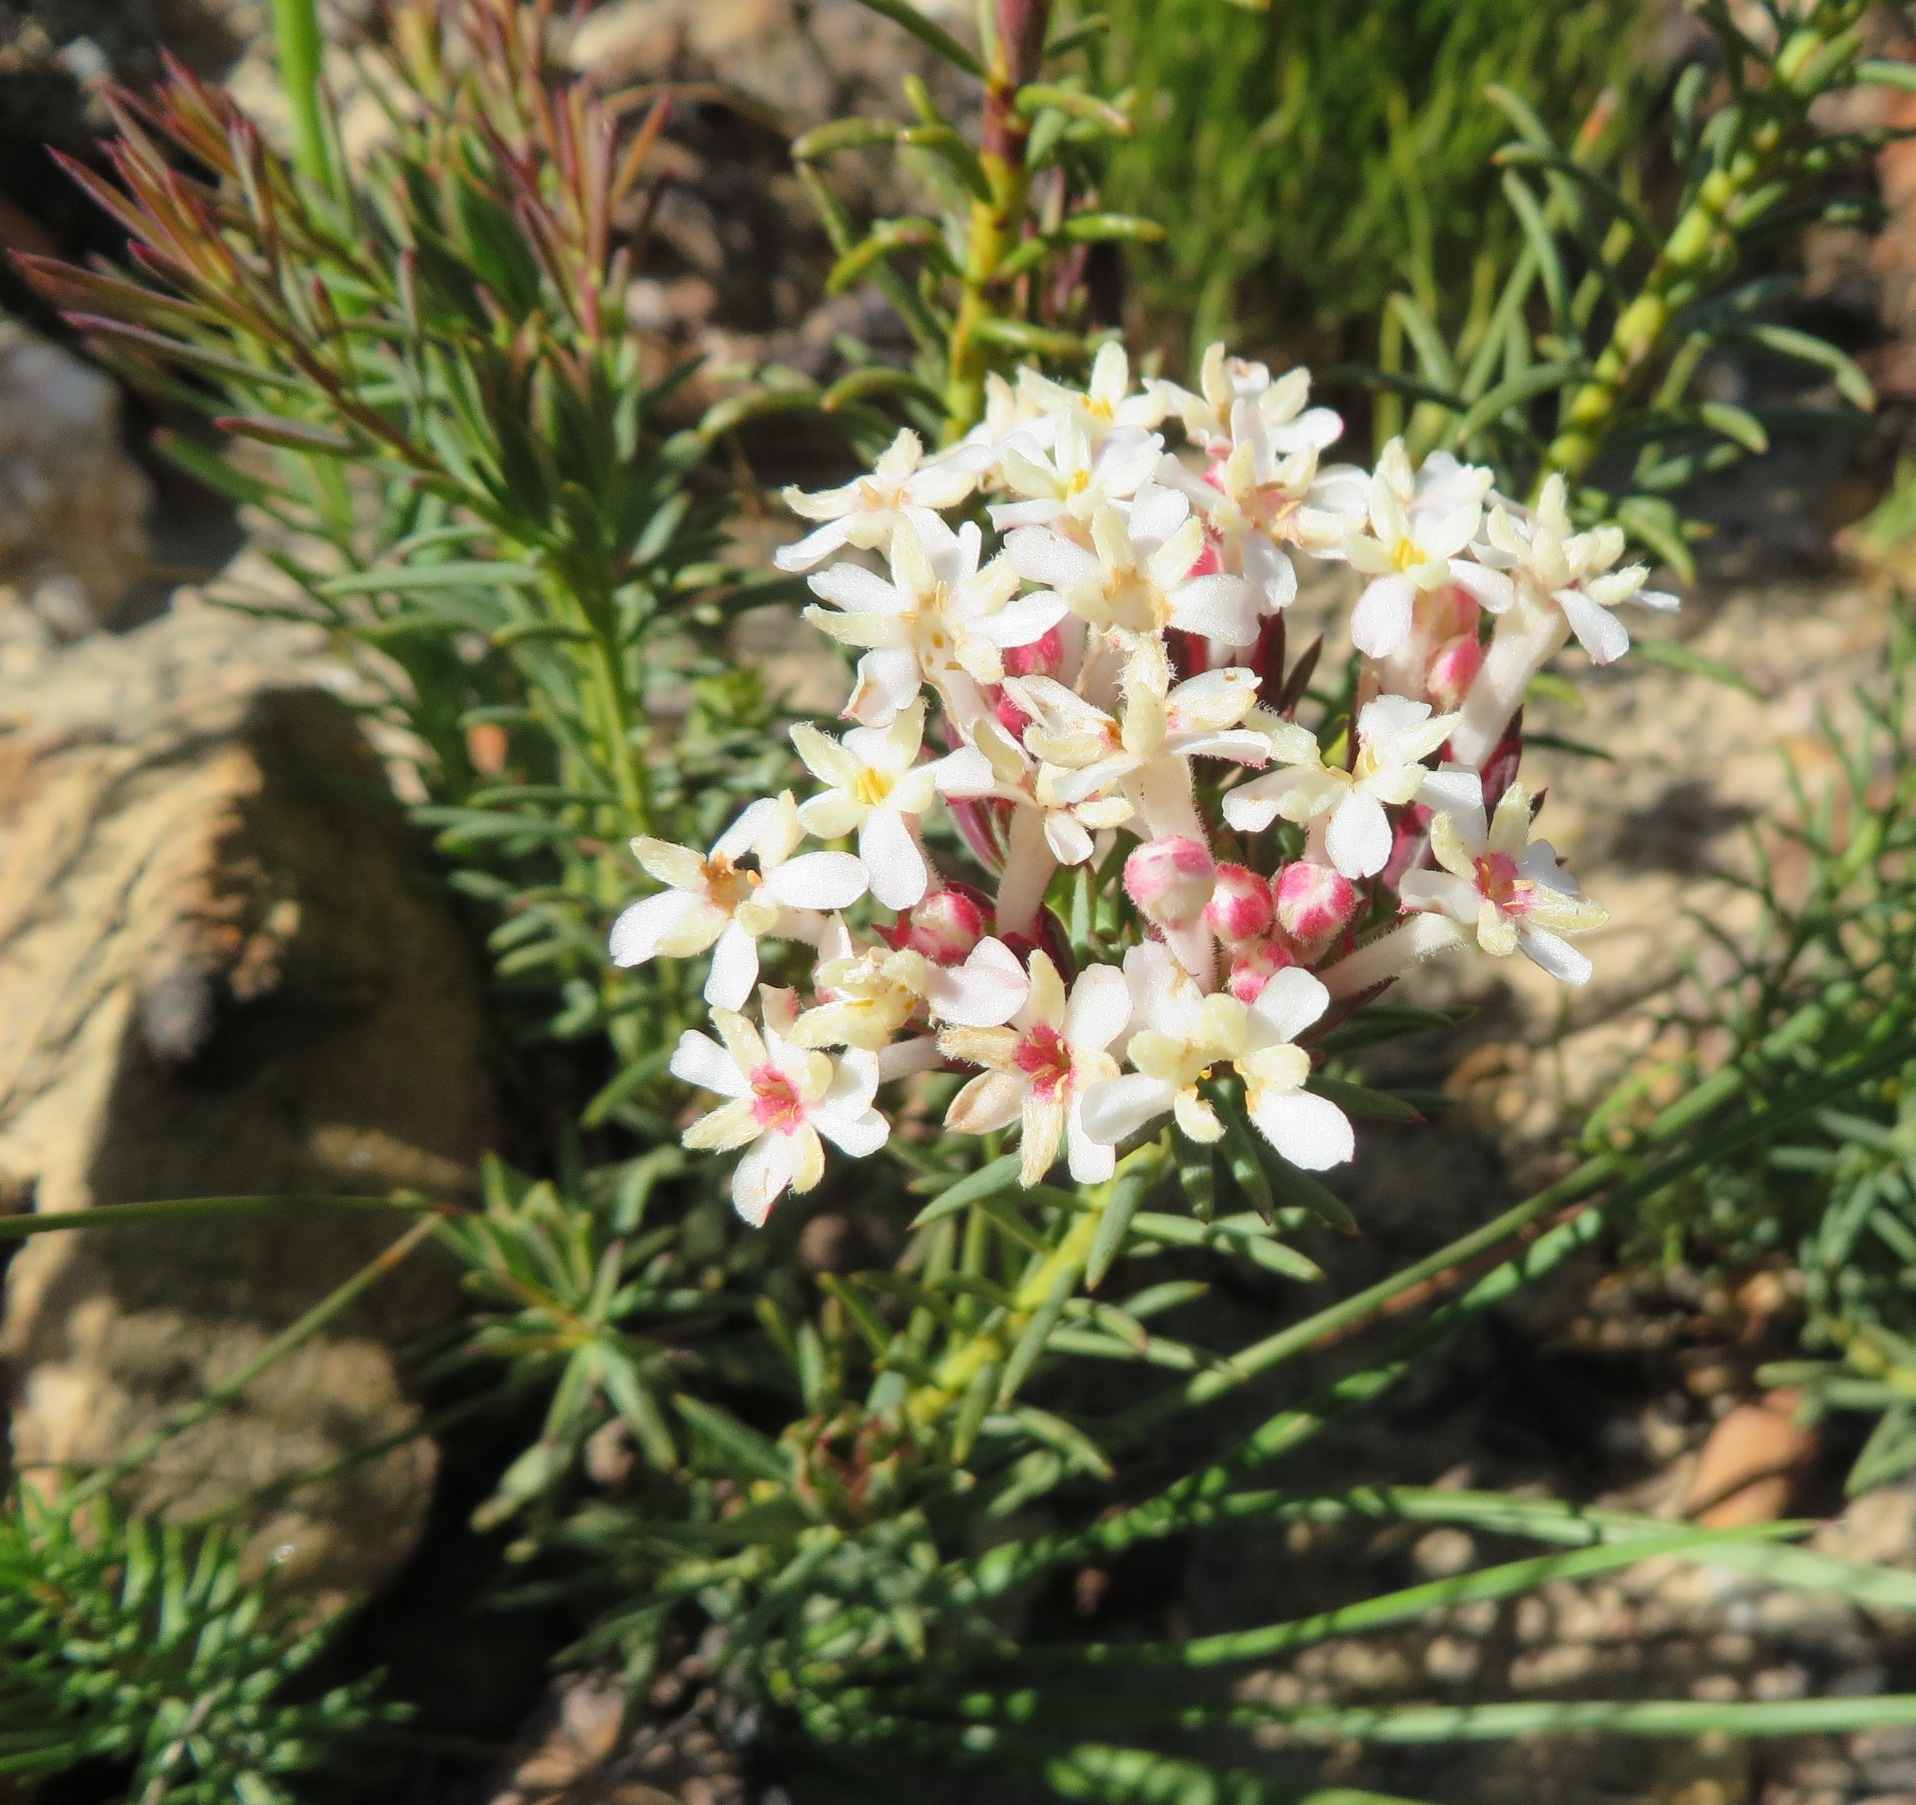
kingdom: Plantae
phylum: Tracheophyta
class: Magnoliopsida
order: Malvales
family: Thymelaeaceae
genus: Gnidia
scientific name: Gnidia pinifolia
